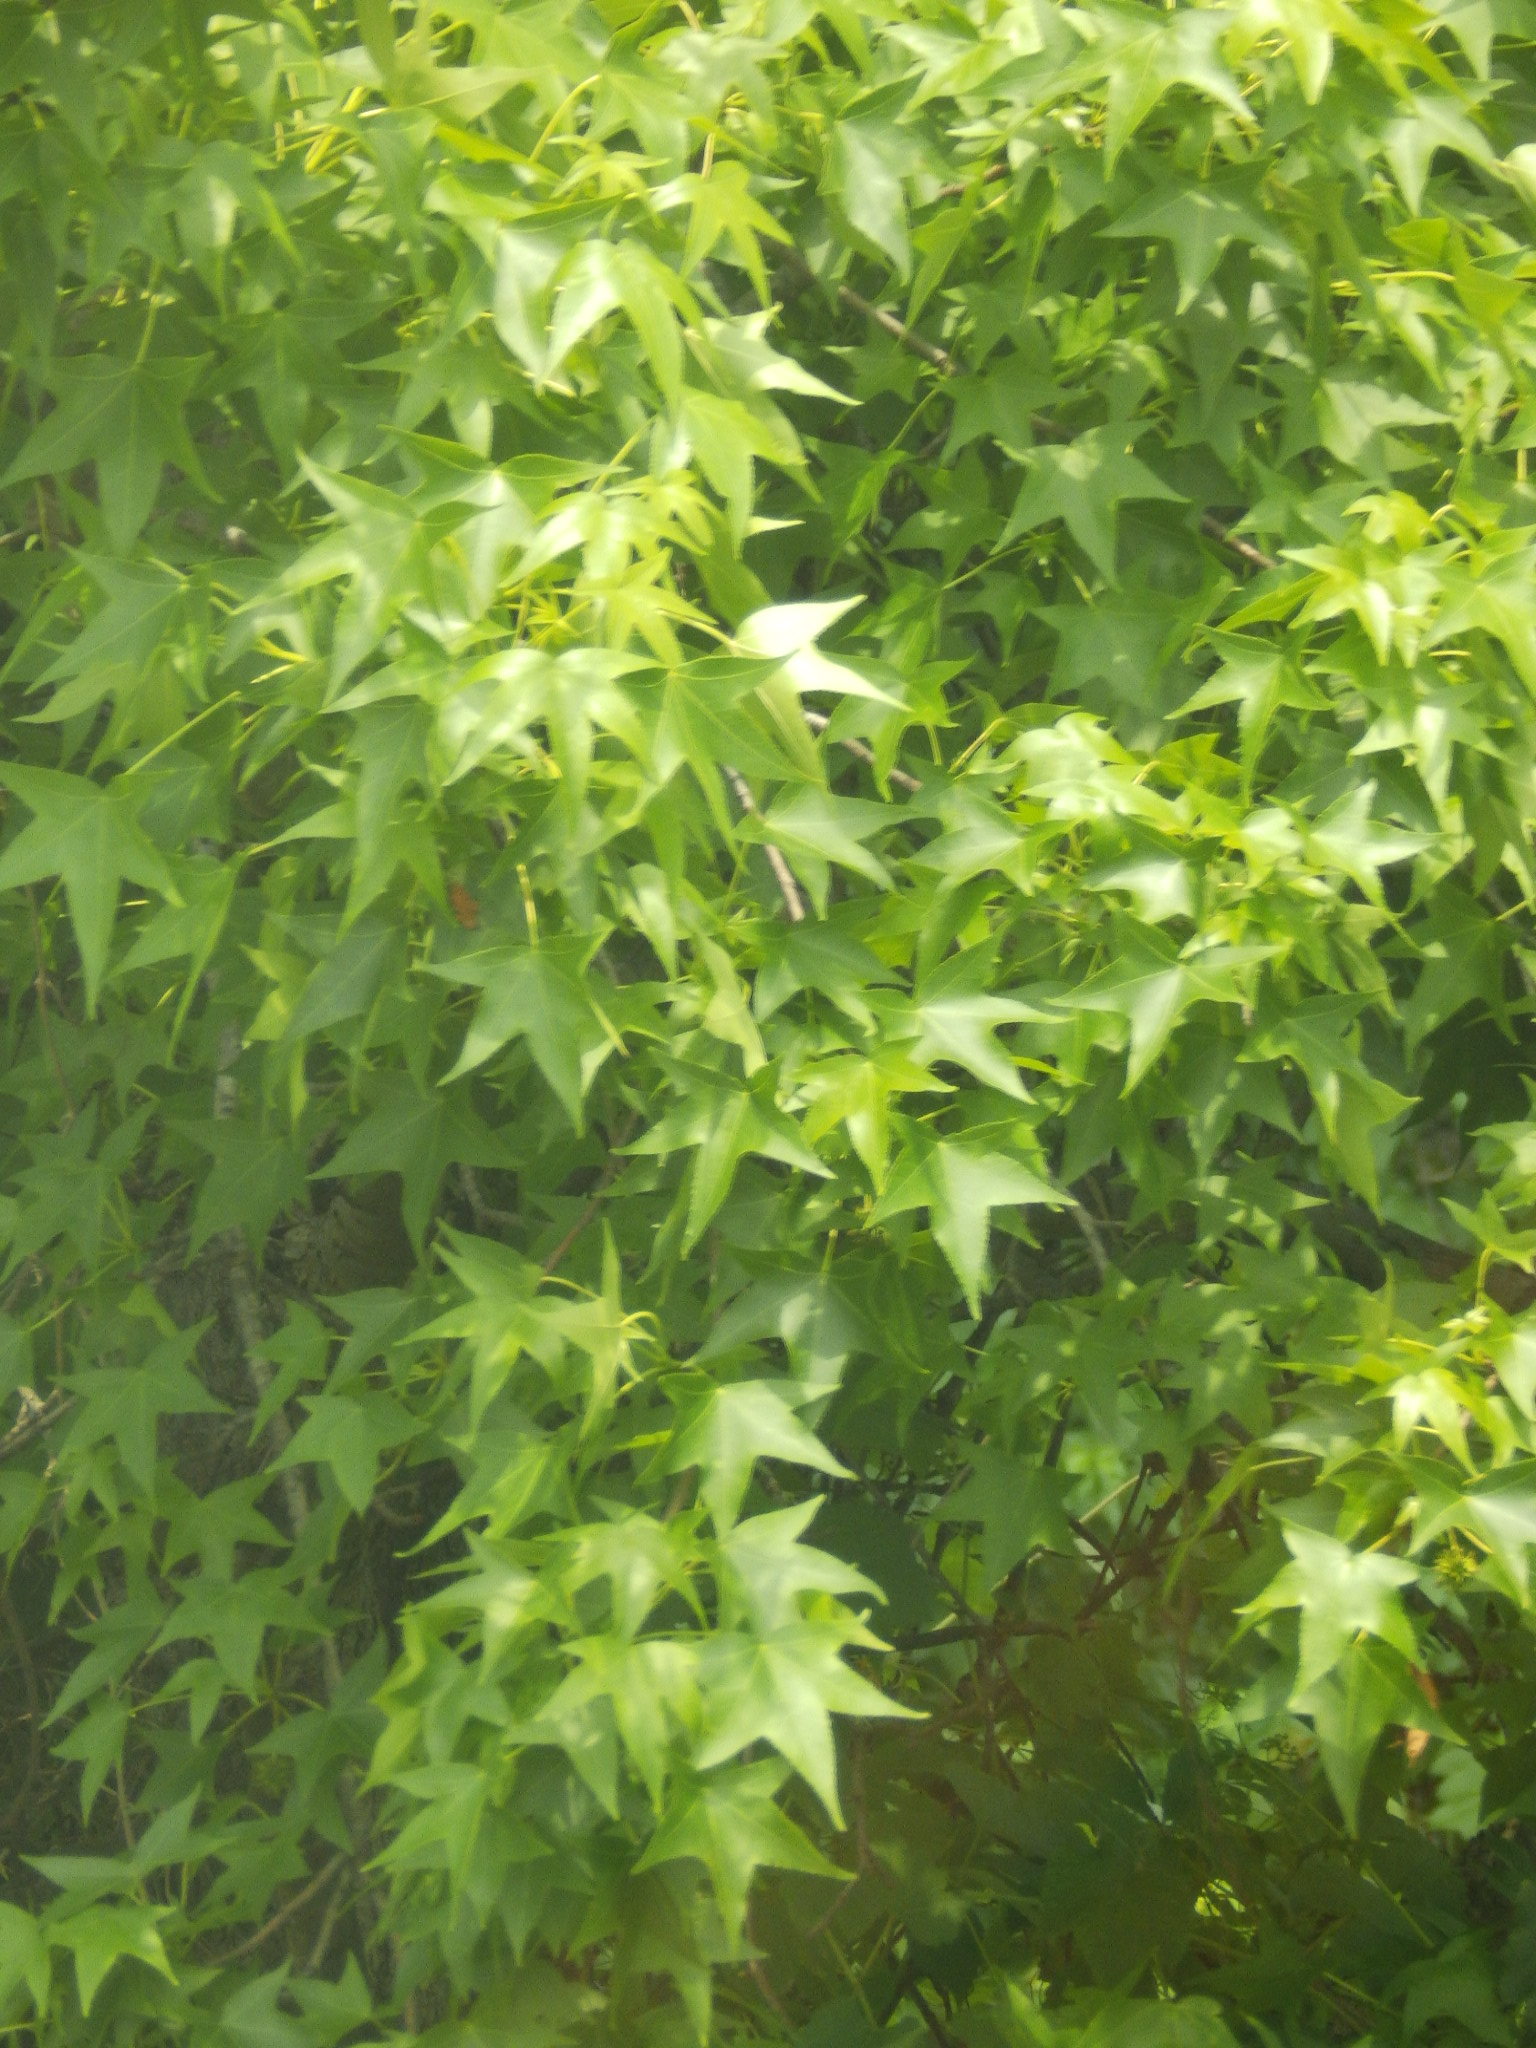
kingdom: Plantae
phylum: Tracheophyta
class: Magnoliopsida
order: Saxifragales
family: Altingiaceae
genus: Liquidambar
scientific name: Liquidambar styraciflua
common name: Sweet gum
